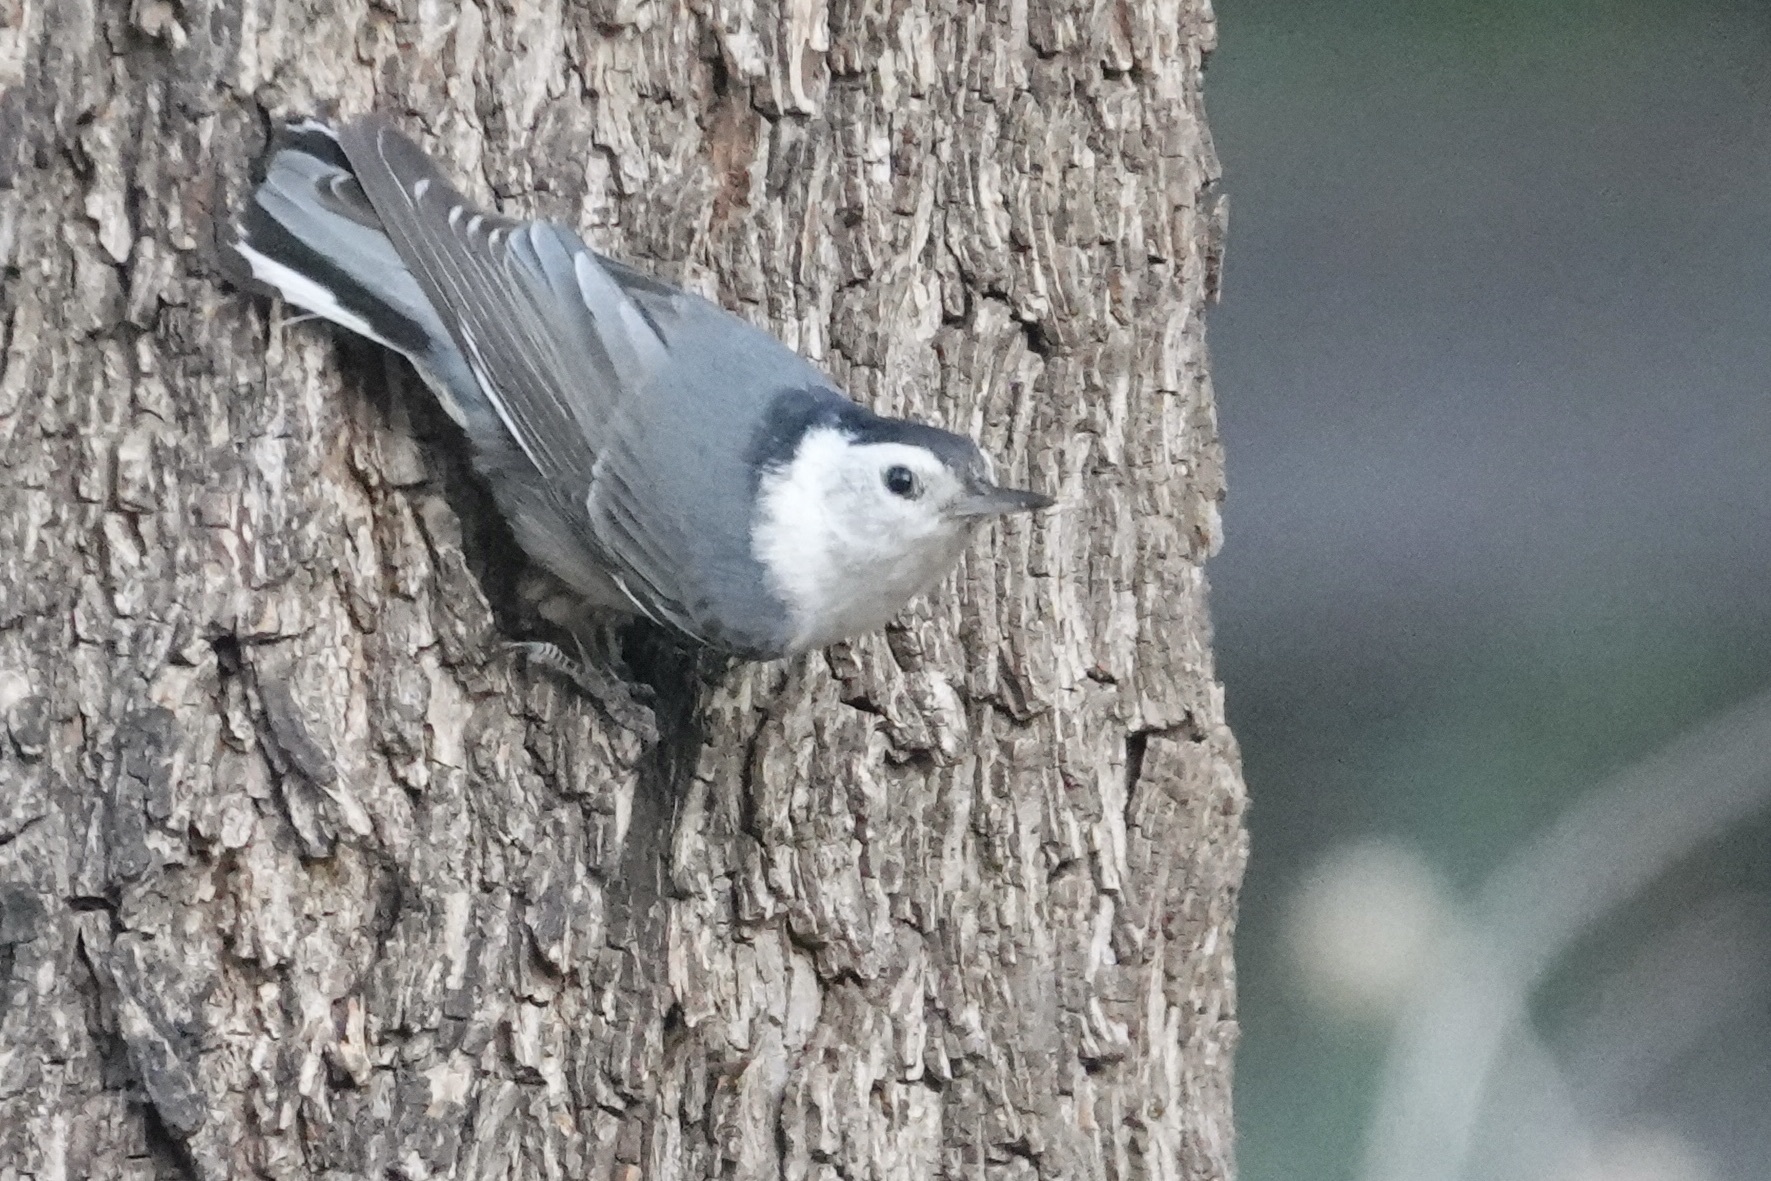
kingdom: Animalia
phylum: Chordata
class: Aves
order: Passeriformes
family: Sittidae
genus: Sitta
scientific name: Sitta carolinensis
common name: White-breasted nuthatch
